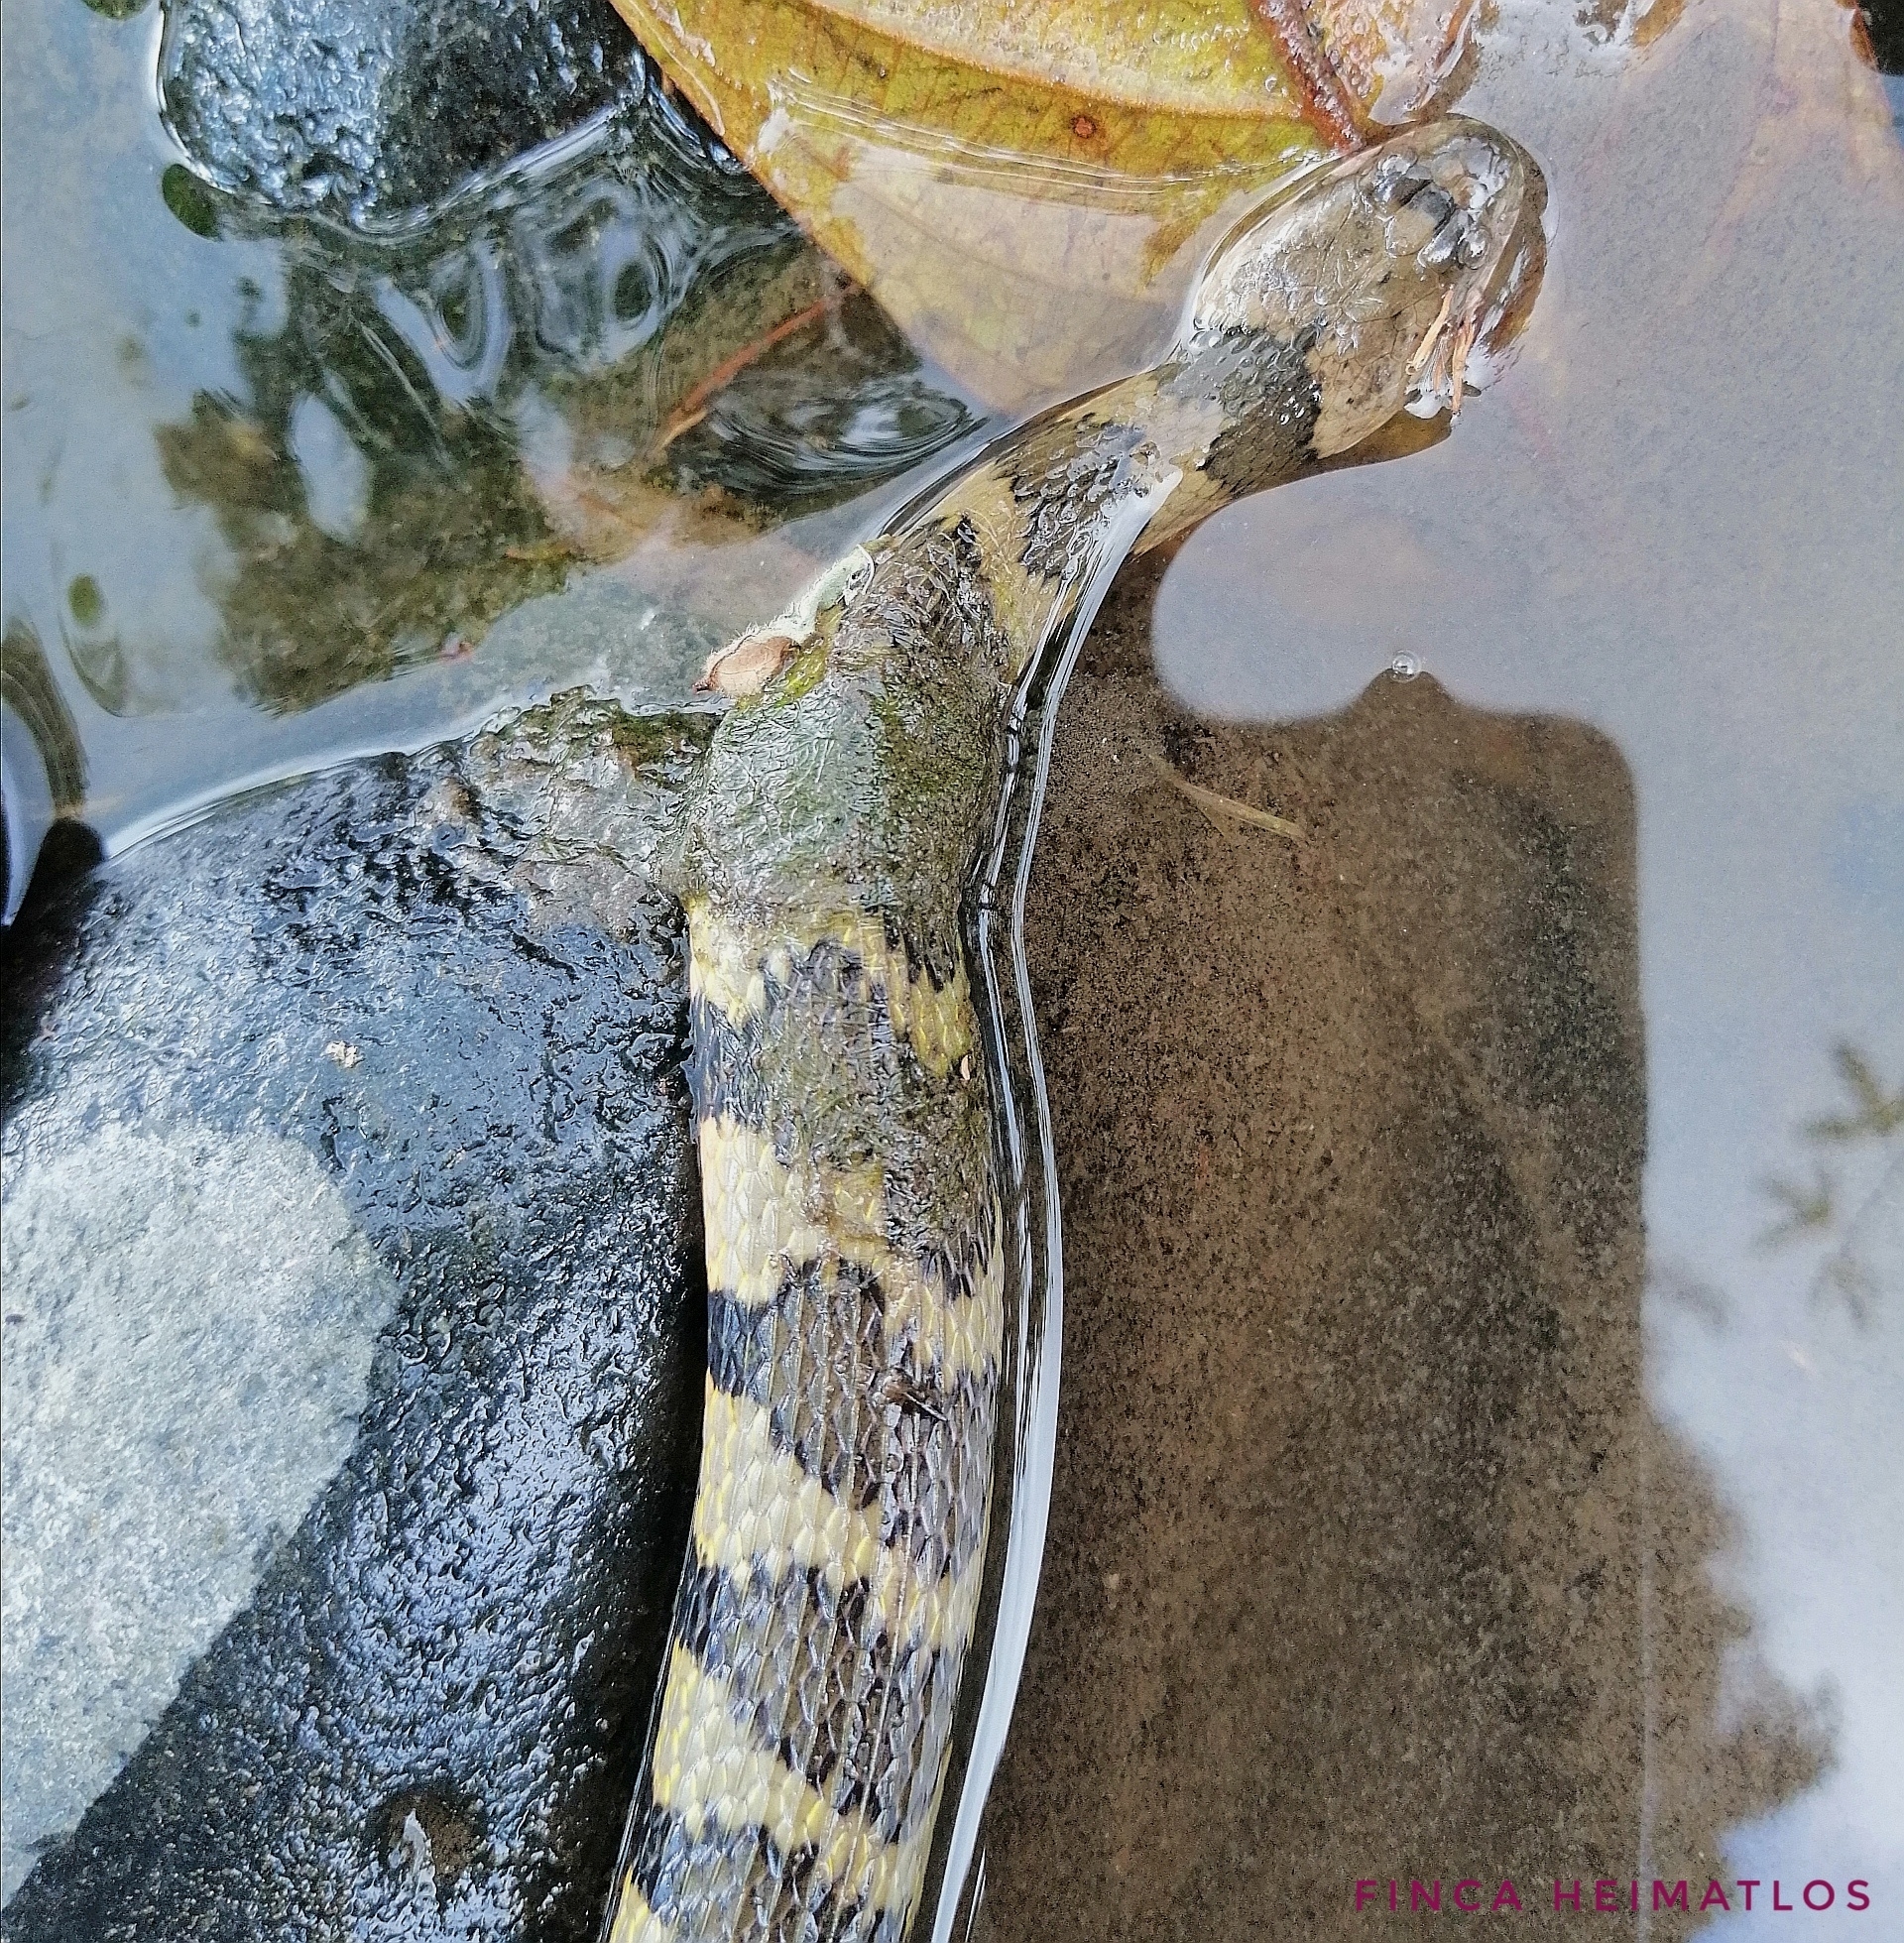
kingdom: Animalia
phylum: Chordata
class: Squamata
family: Colubridae
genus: Helicops
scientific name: Helicops angulatus
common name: Mountain keelback
